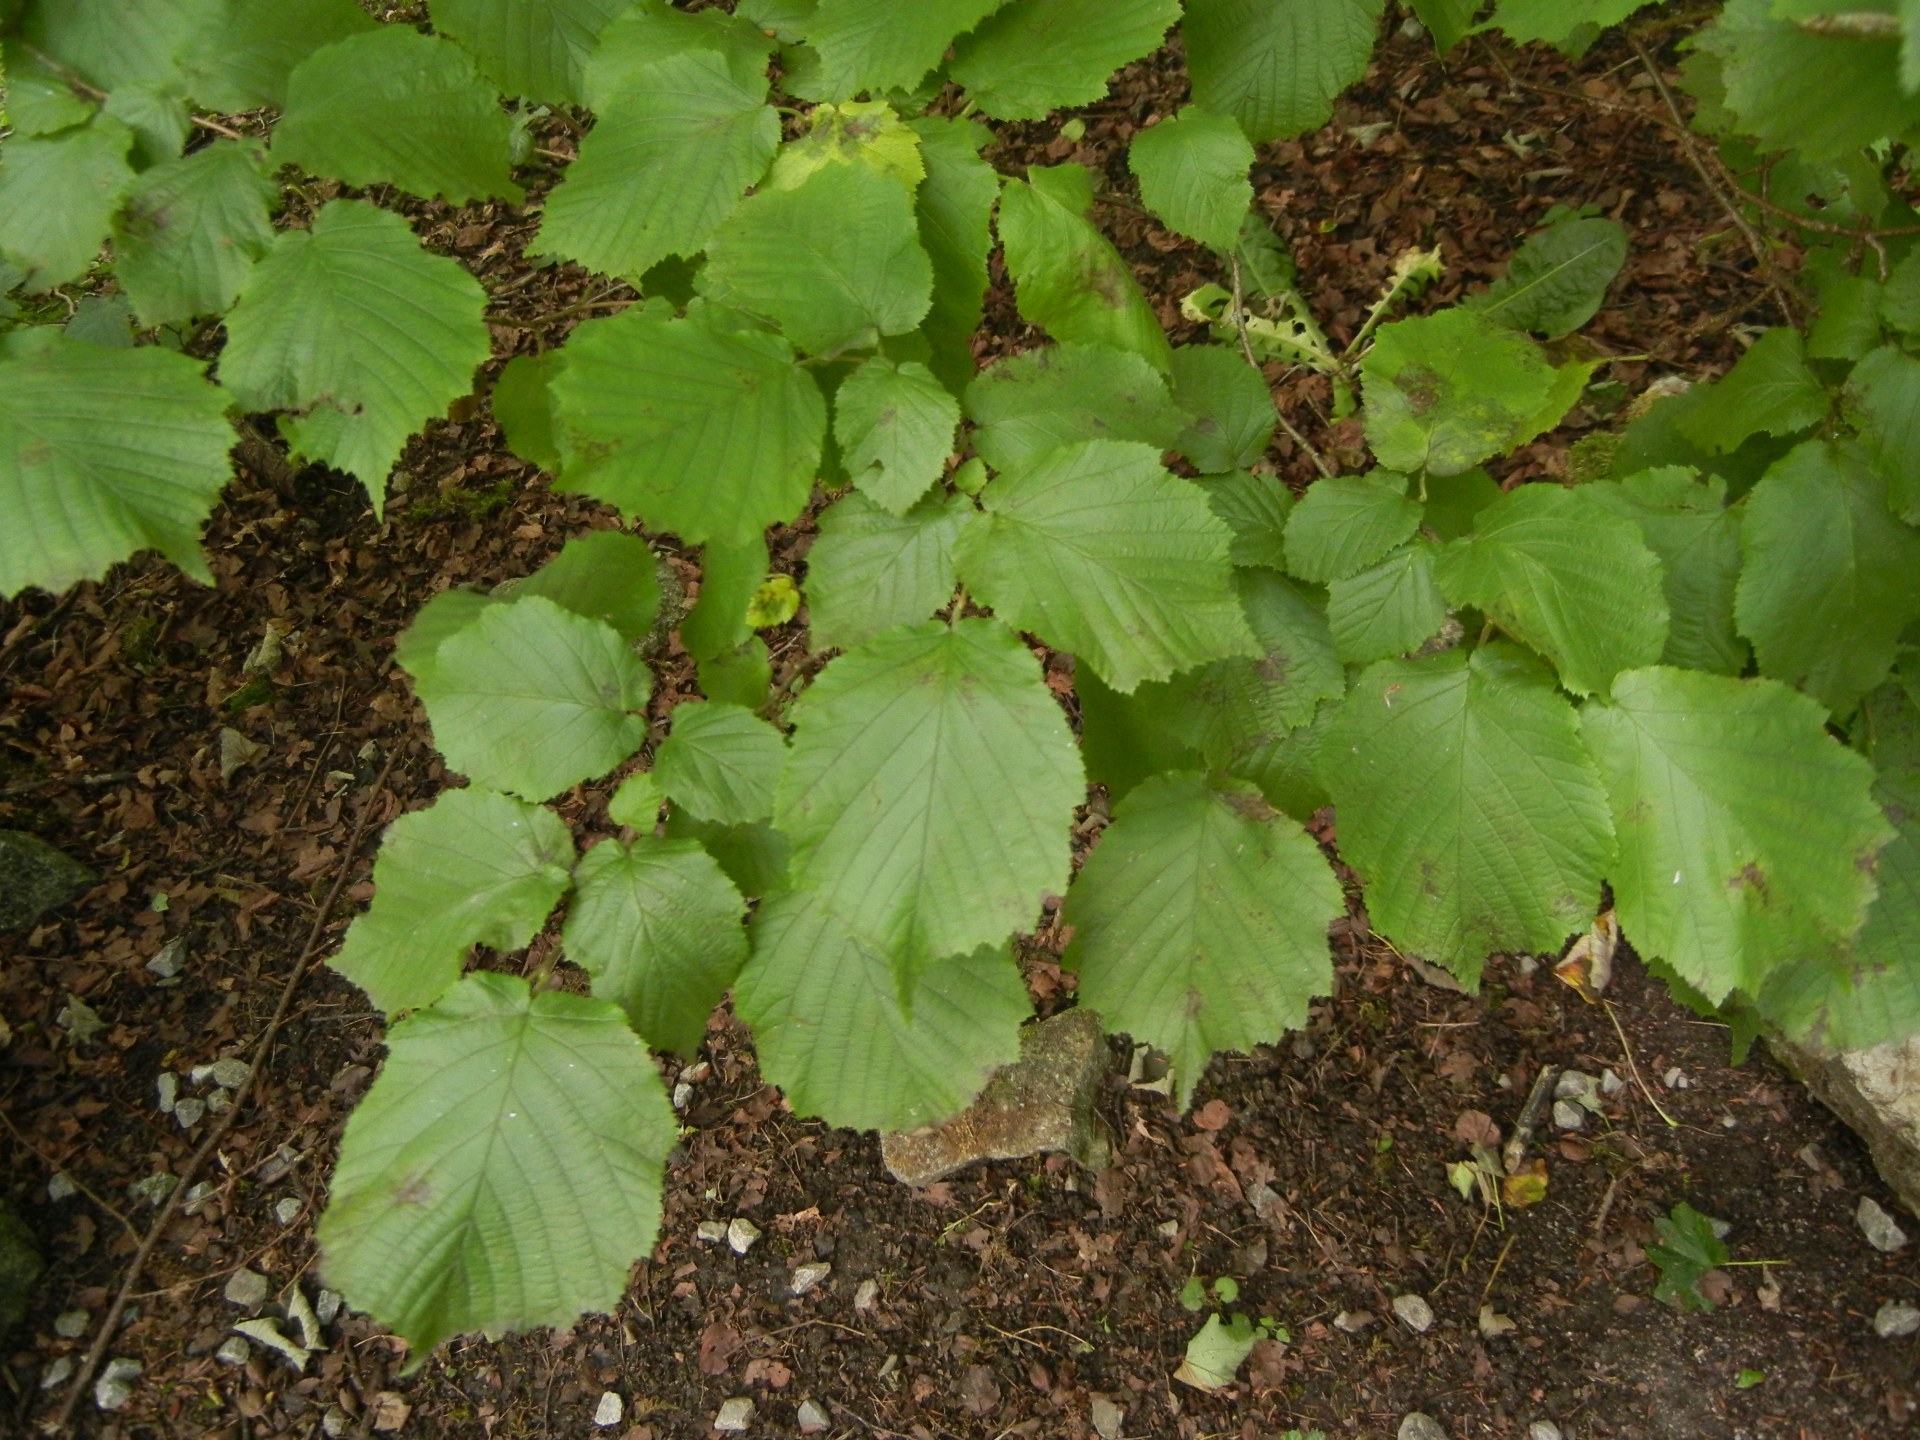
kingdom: Plantae
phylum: Tracheophyta
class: Magnoliopsida
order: Fagales
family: Betulaceae
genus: Corylus
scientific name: Corylus avellana
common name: European hazel
